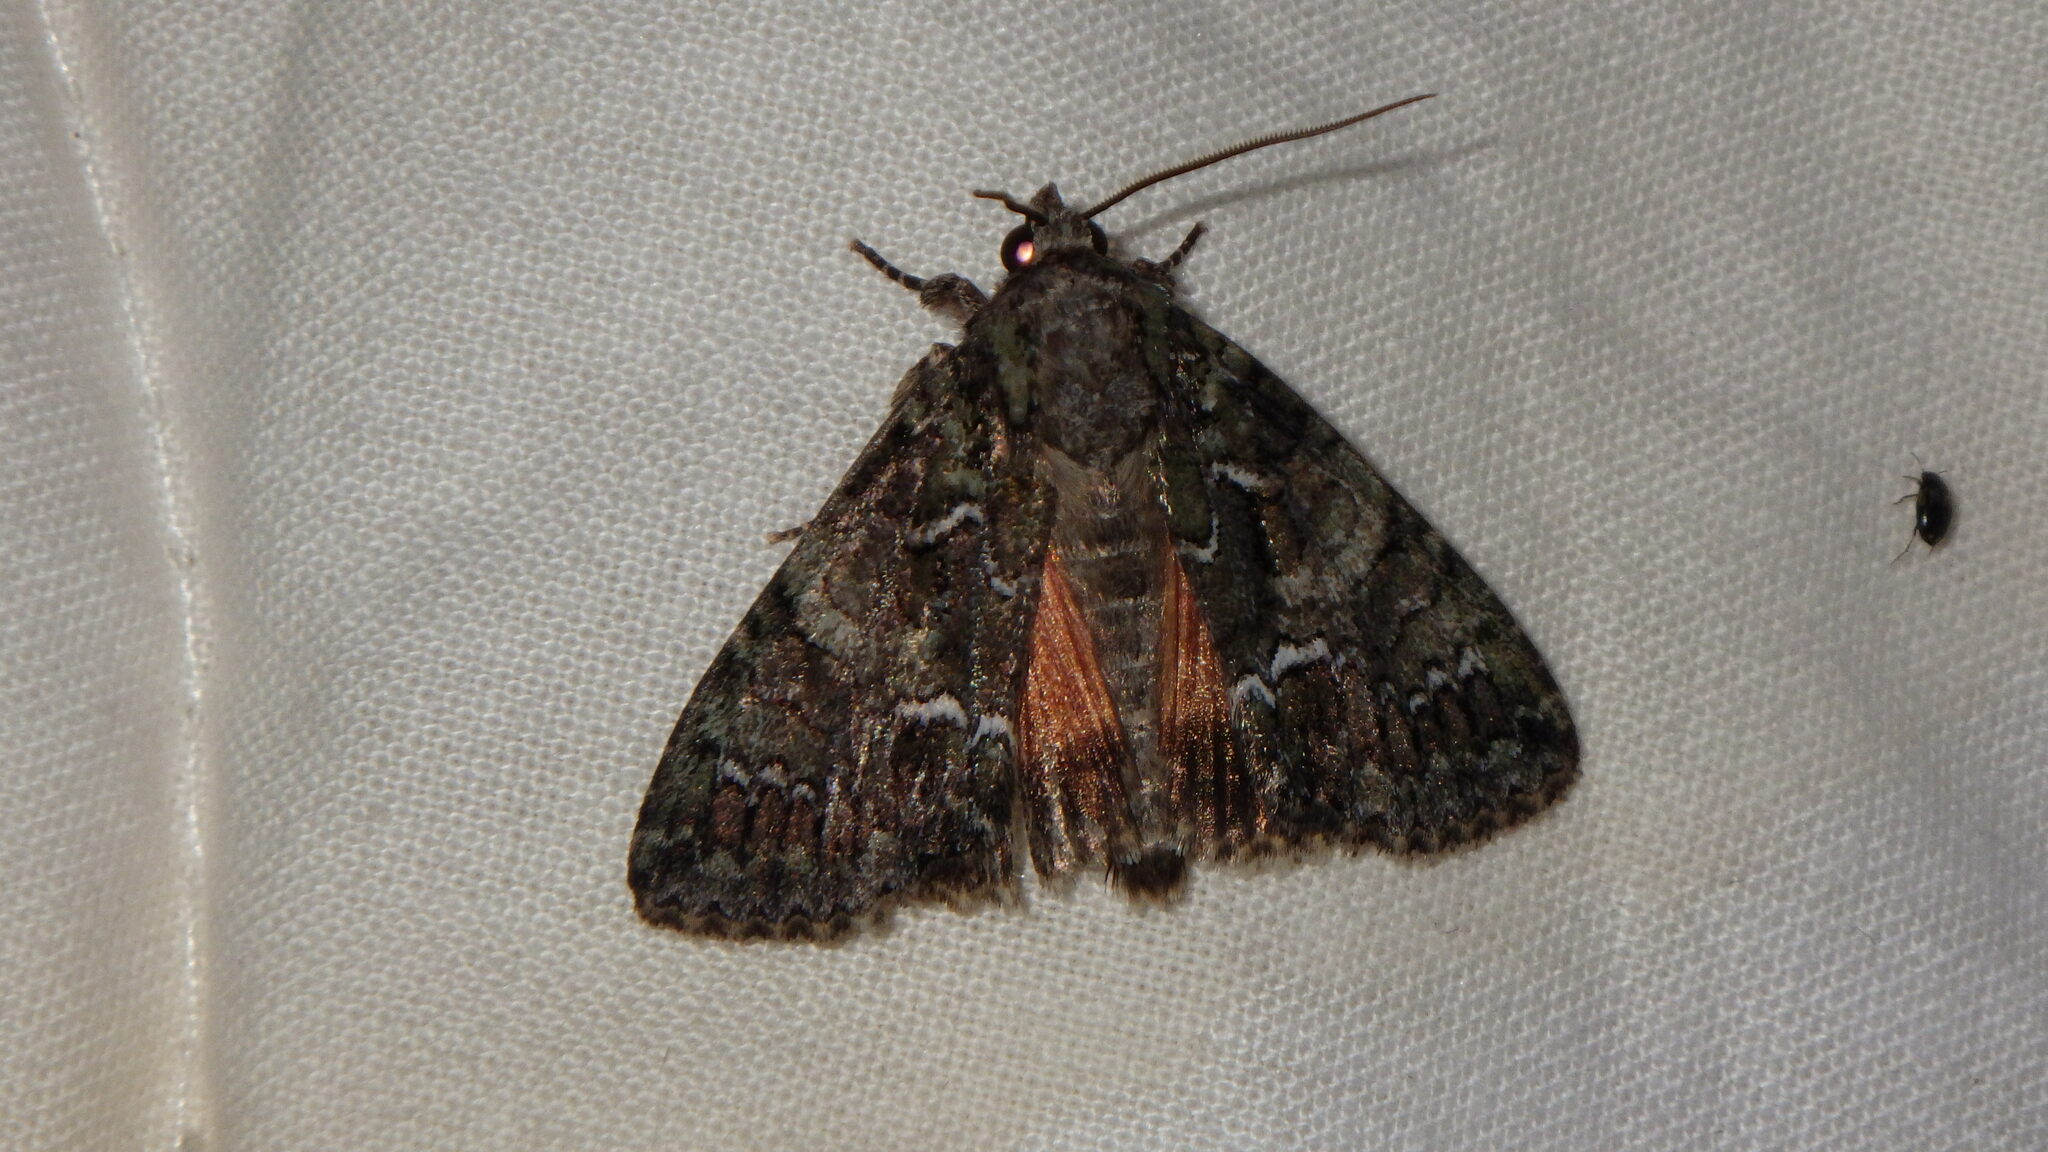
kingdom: Animalia
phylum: Arthropoda
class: Insecta
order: Lepidoptera
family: Noctuidae
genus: Polyphaenis
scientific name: Polyphaenis sericata
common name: Guernsey underwing
